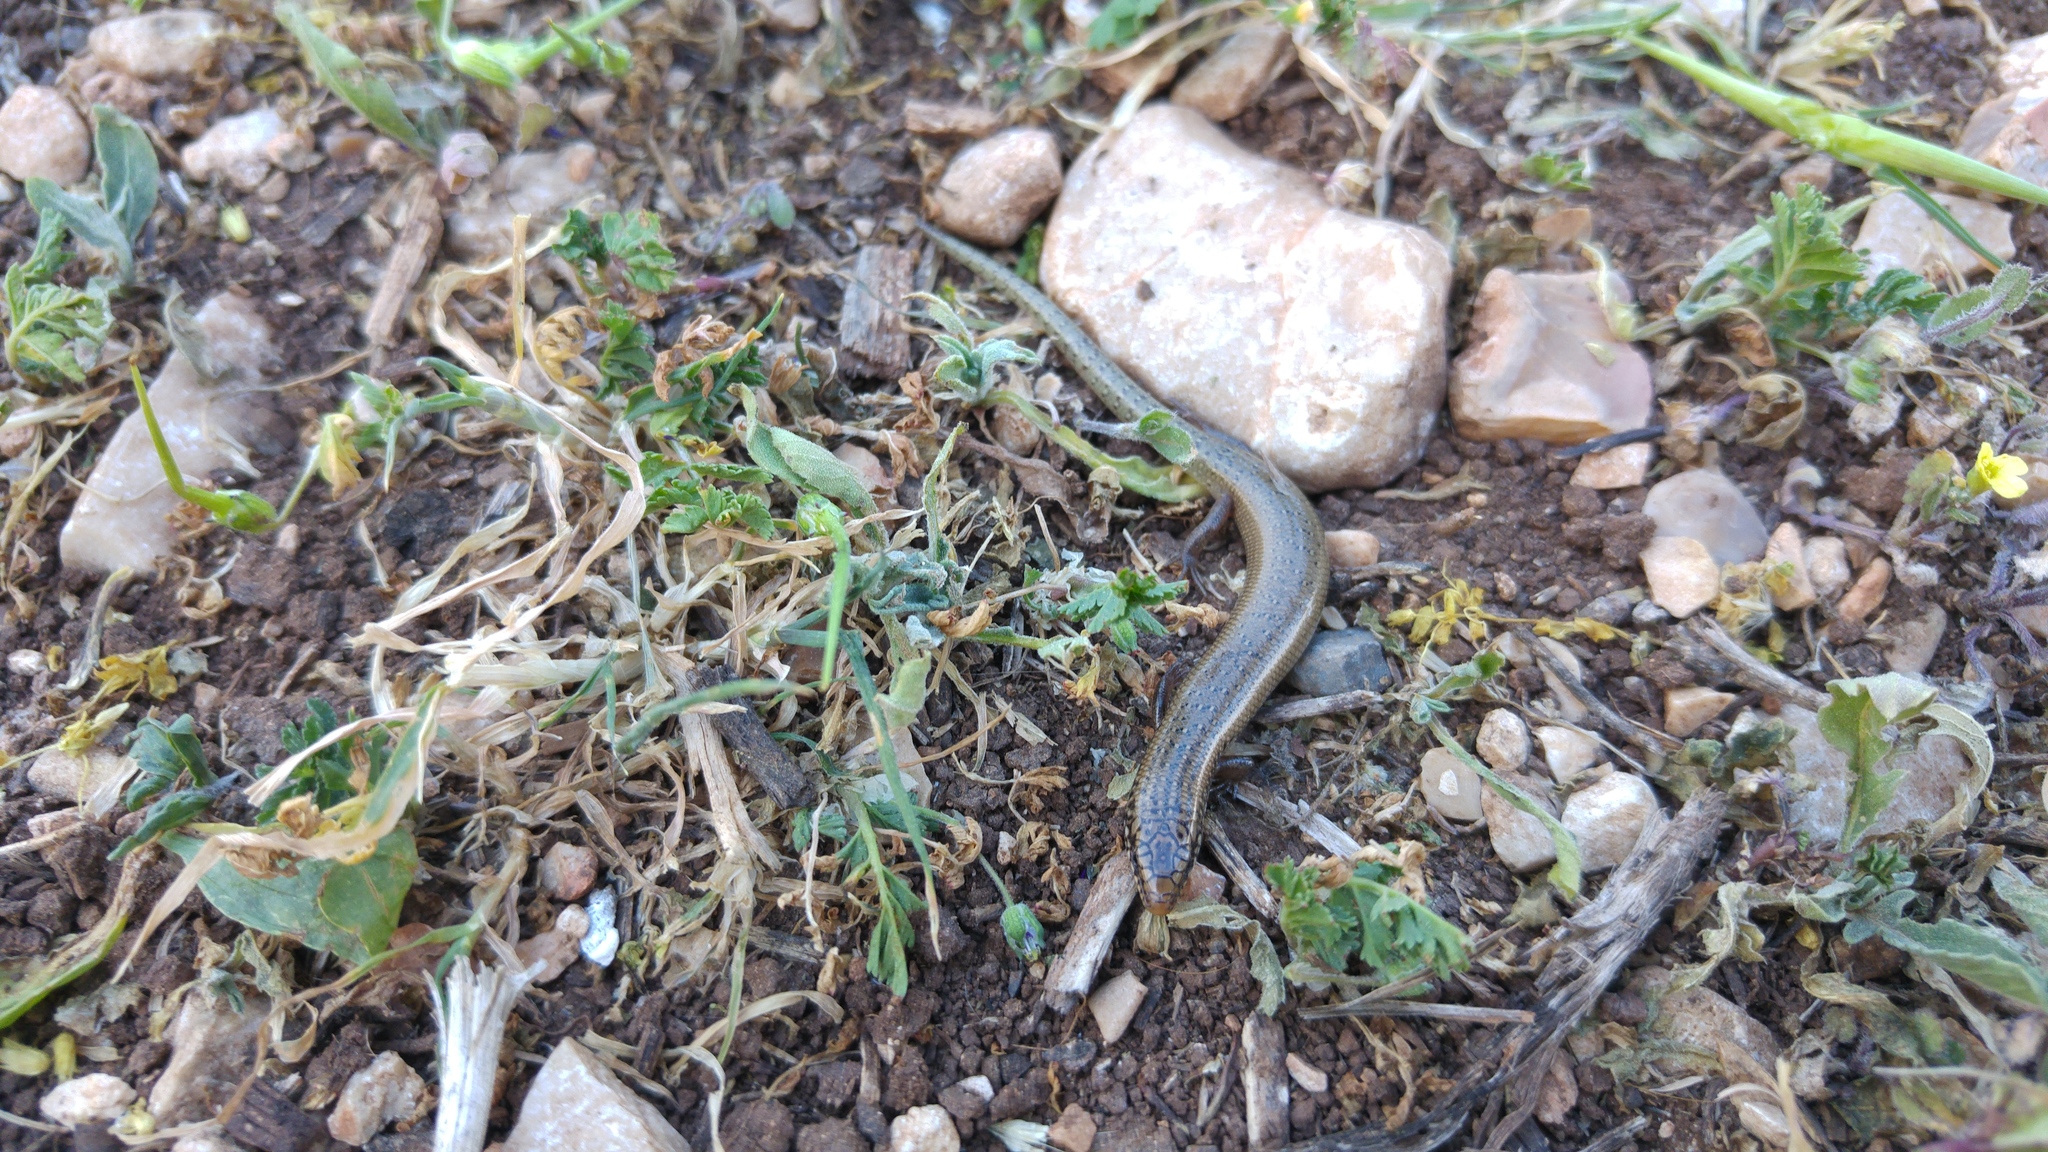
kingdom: Animalia
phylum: Chordata
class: Squamata
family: Scincidae
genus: Chalcides
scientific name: Chalcides ocellatus
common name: Ocellated skink
